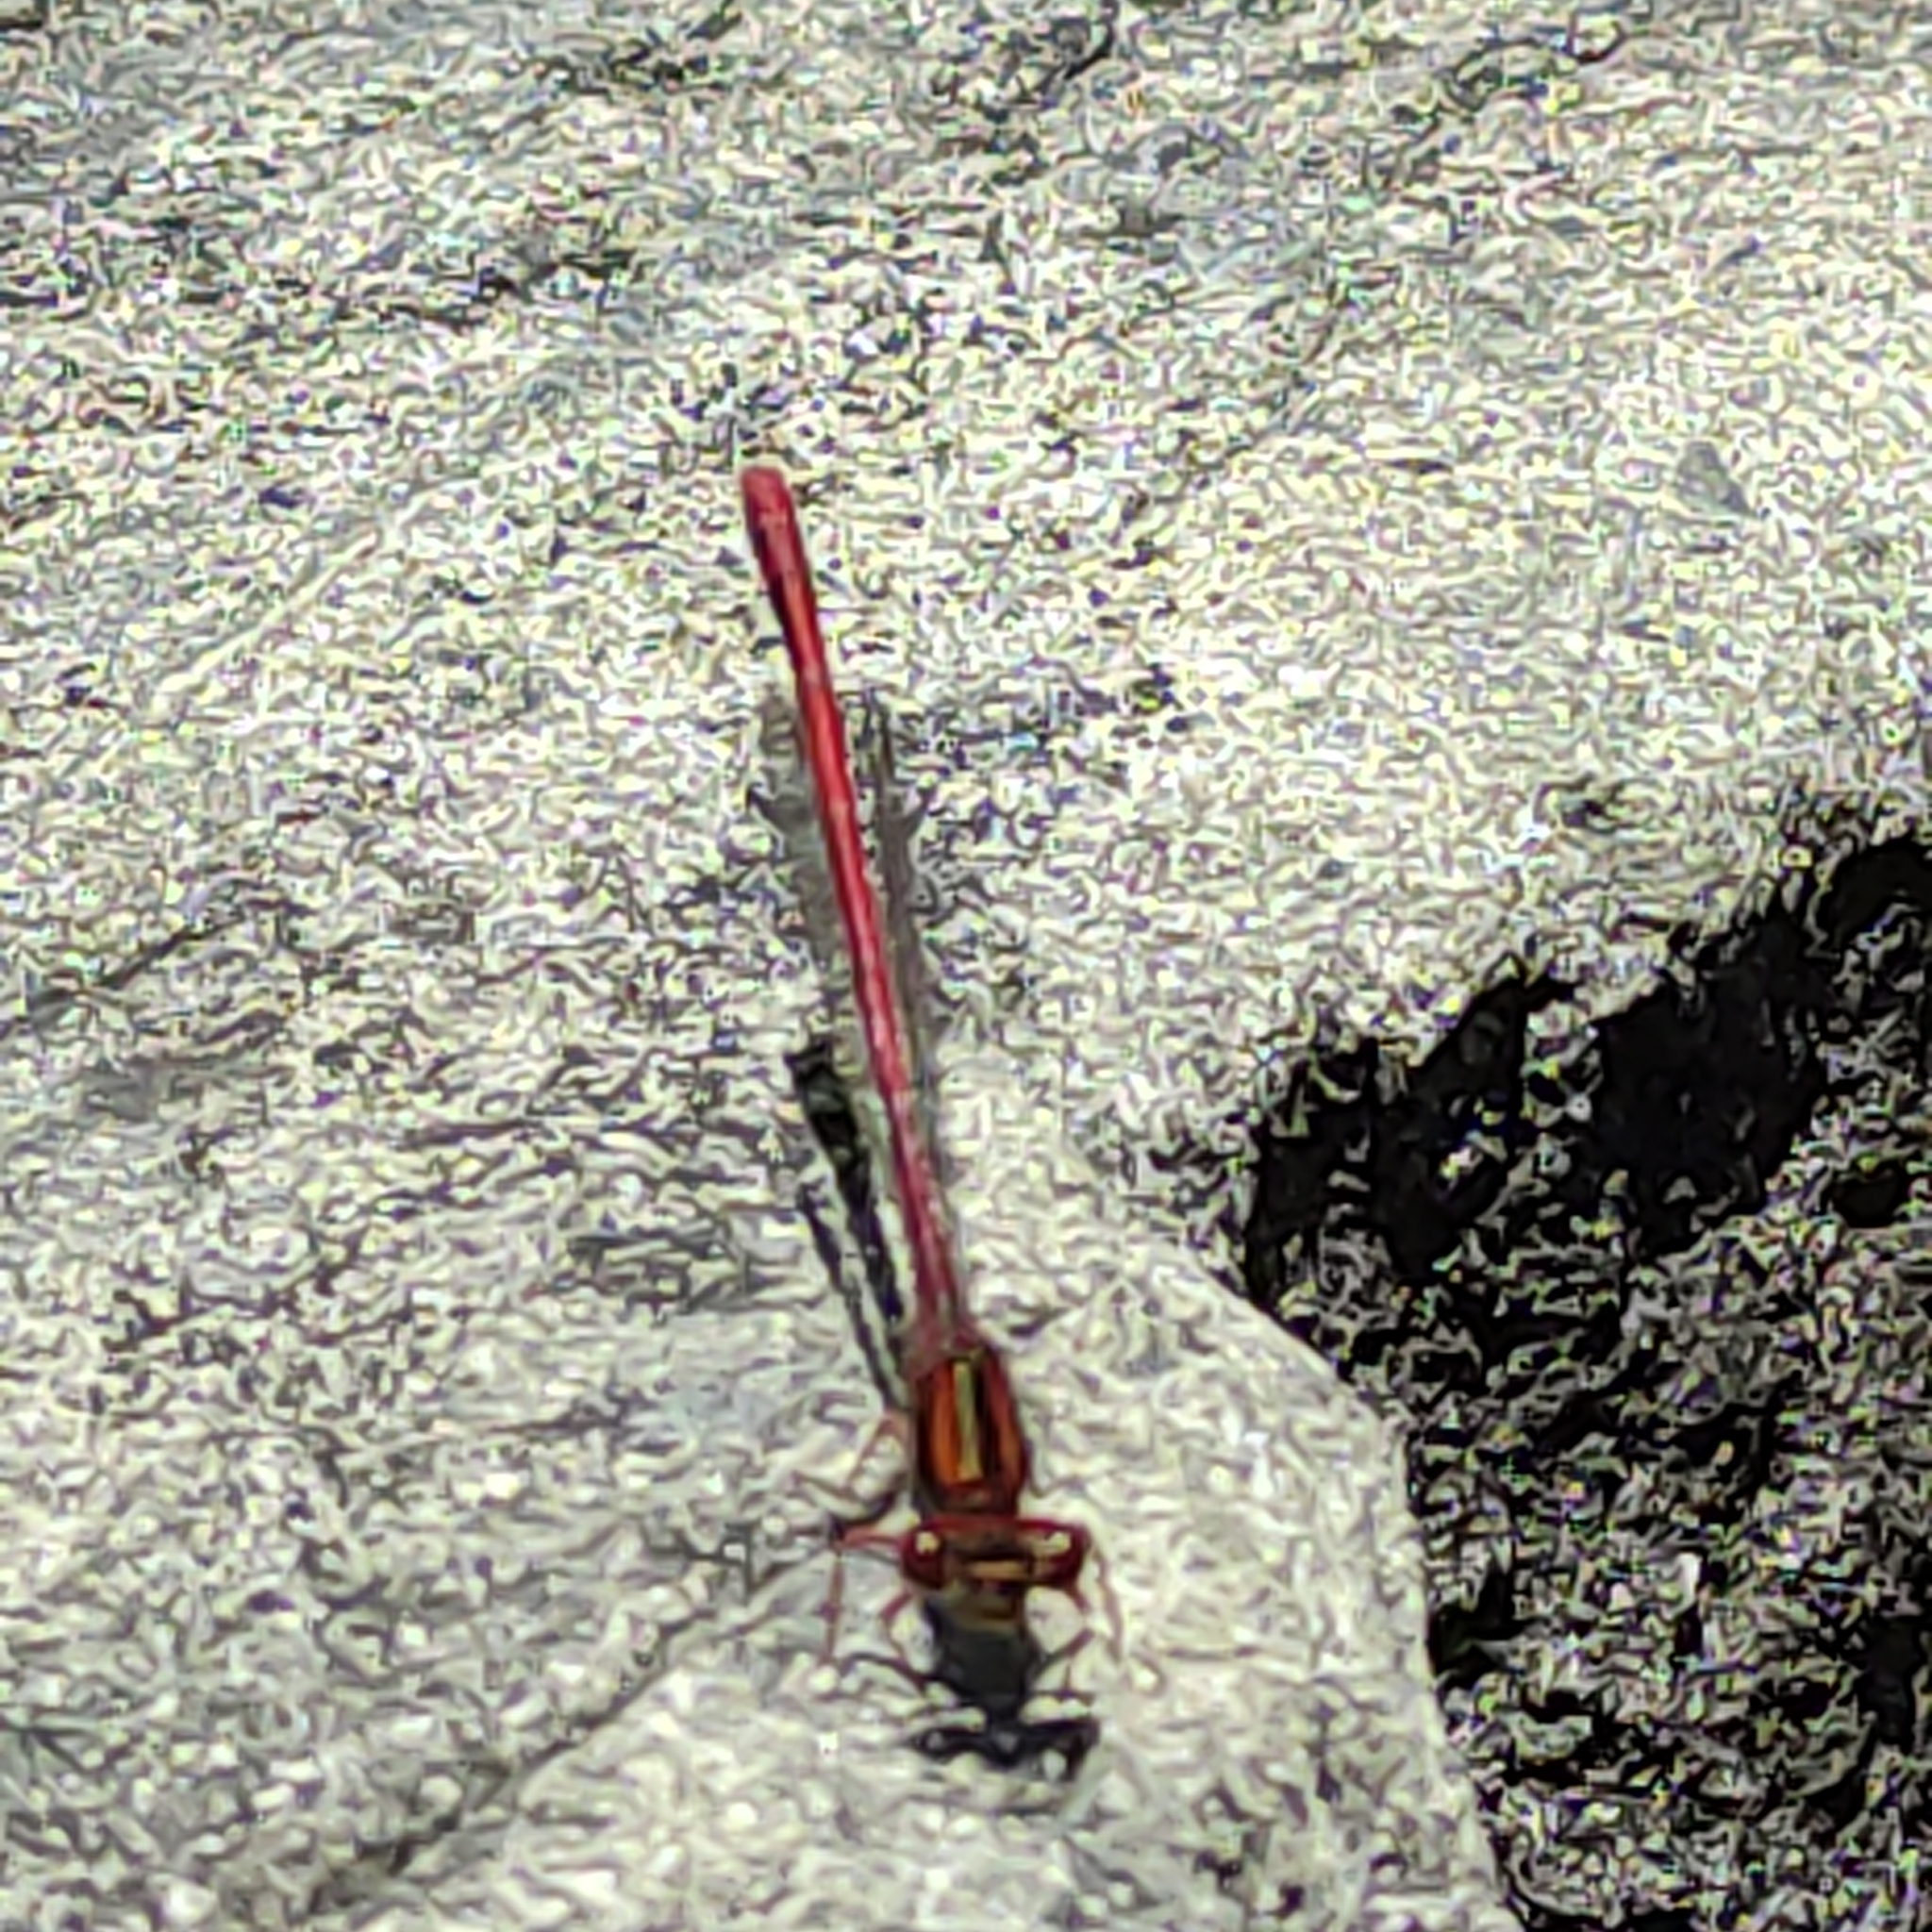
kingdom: Animalia
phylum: Arthropoda
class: Insecta
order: Odonata
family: Coenagrionidae
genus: Xanthocnemis
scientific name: Xanthocnemis zealandica
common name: Common redcoat damselfly
